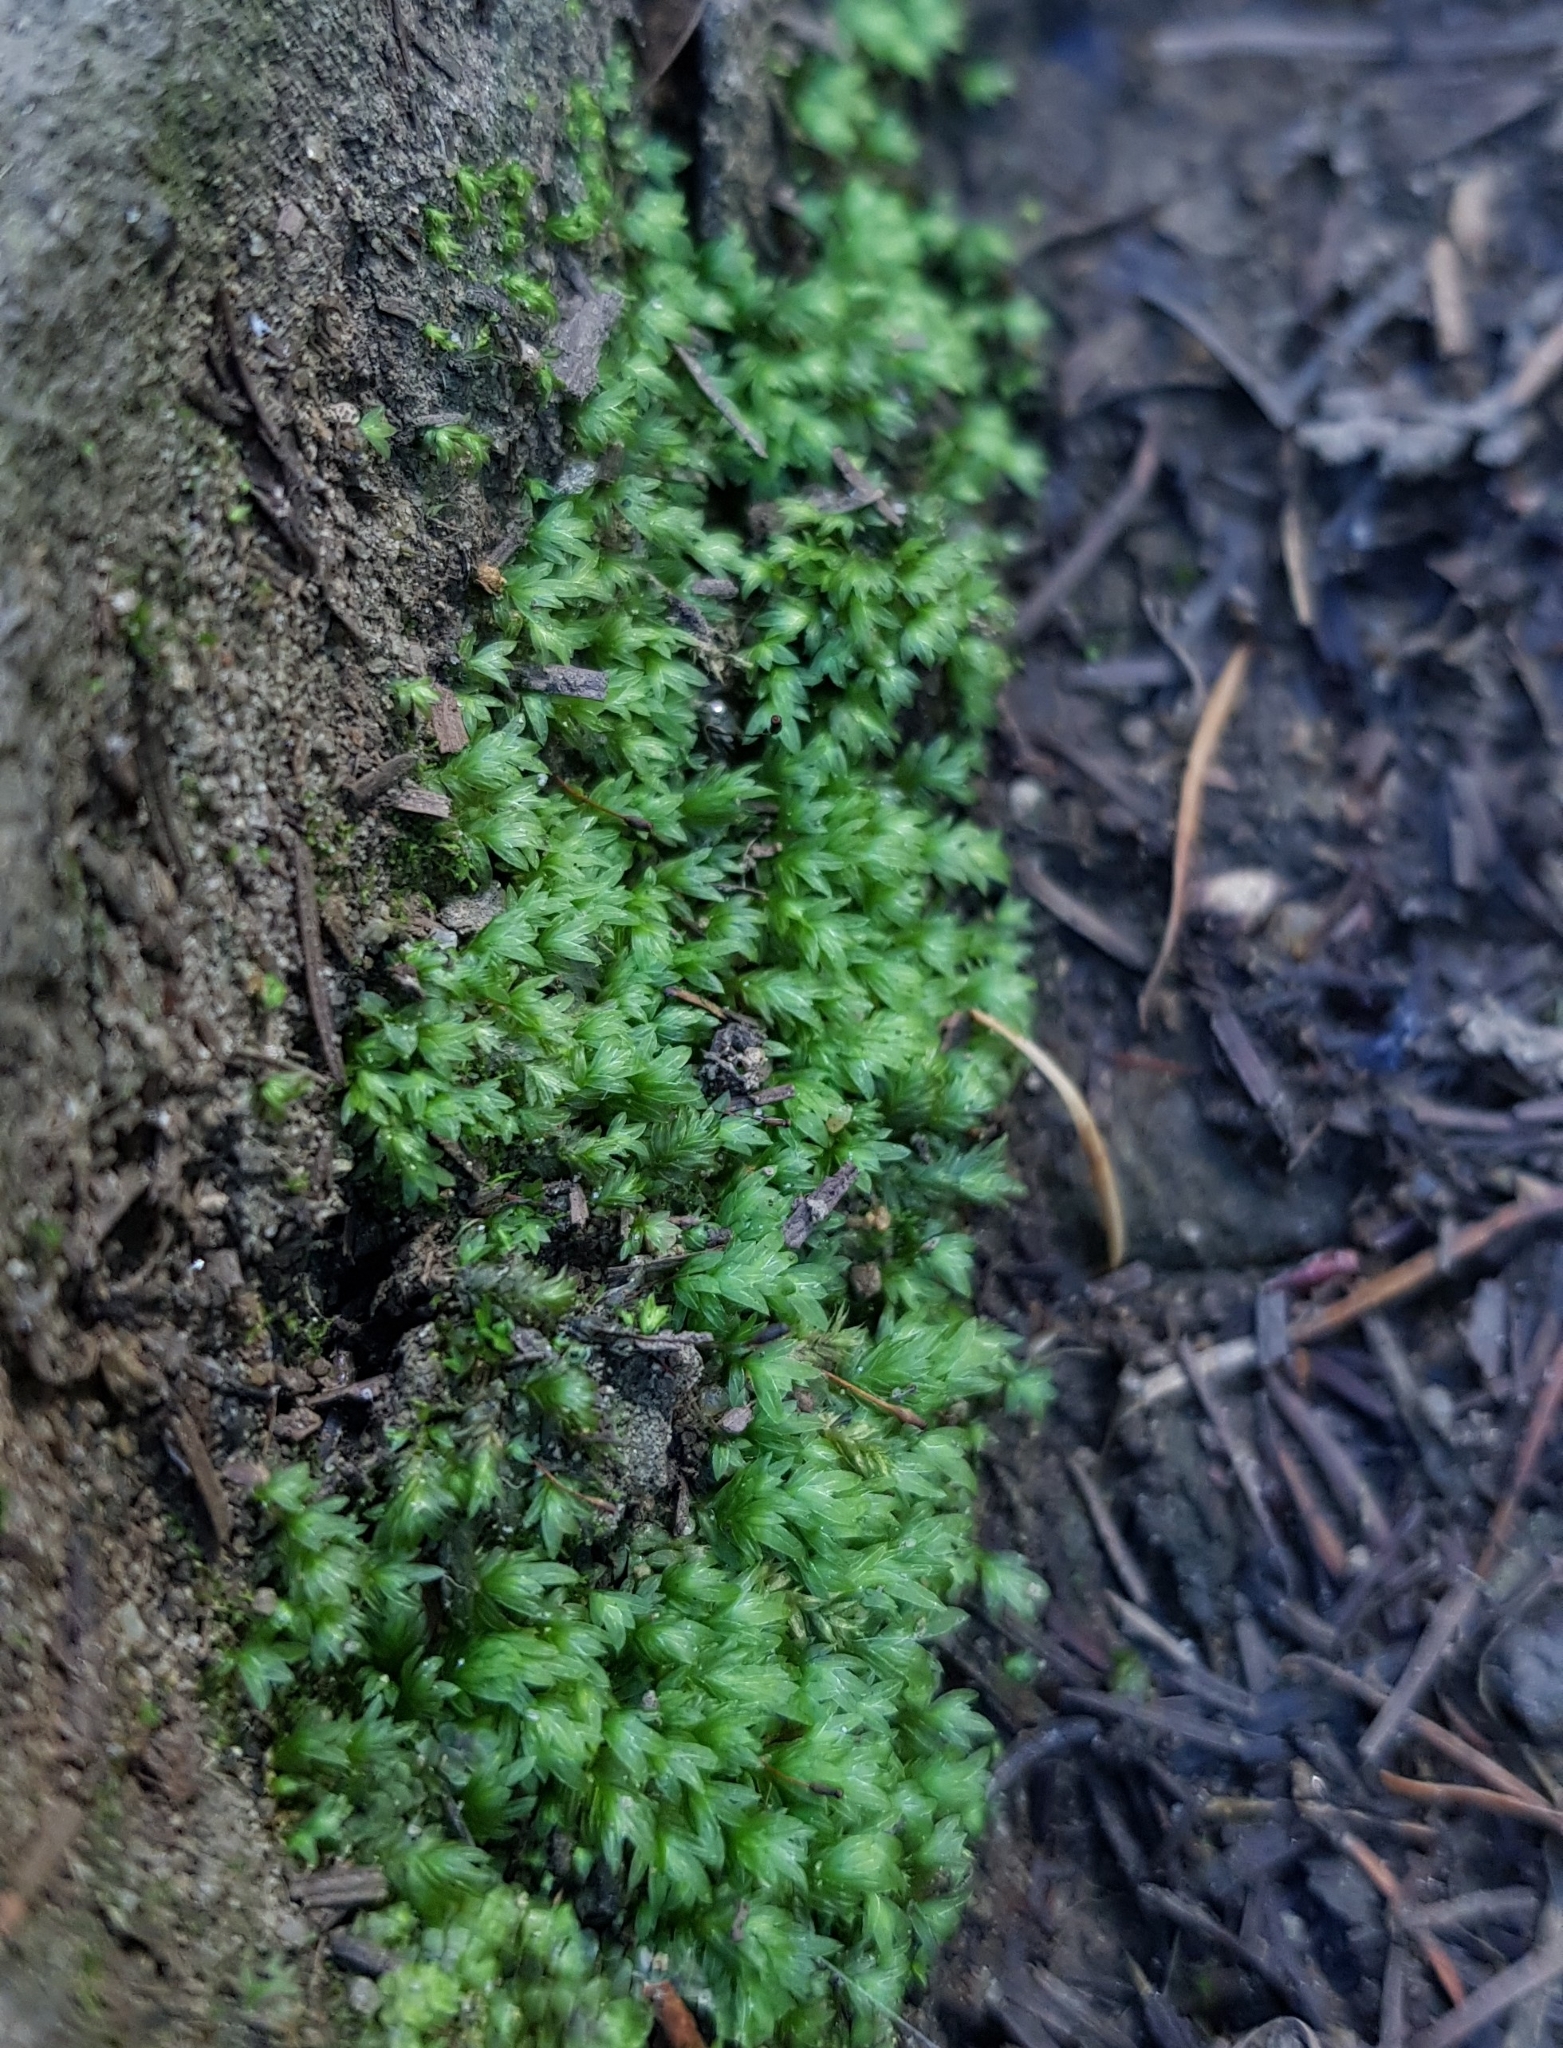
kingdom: Plantae
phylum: Bryophyta
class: Bryopsida
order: Dicranales
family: Fissidentaceae
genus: Fissidens
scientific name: Fissidens bryoides
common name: Lesser pocket moss
